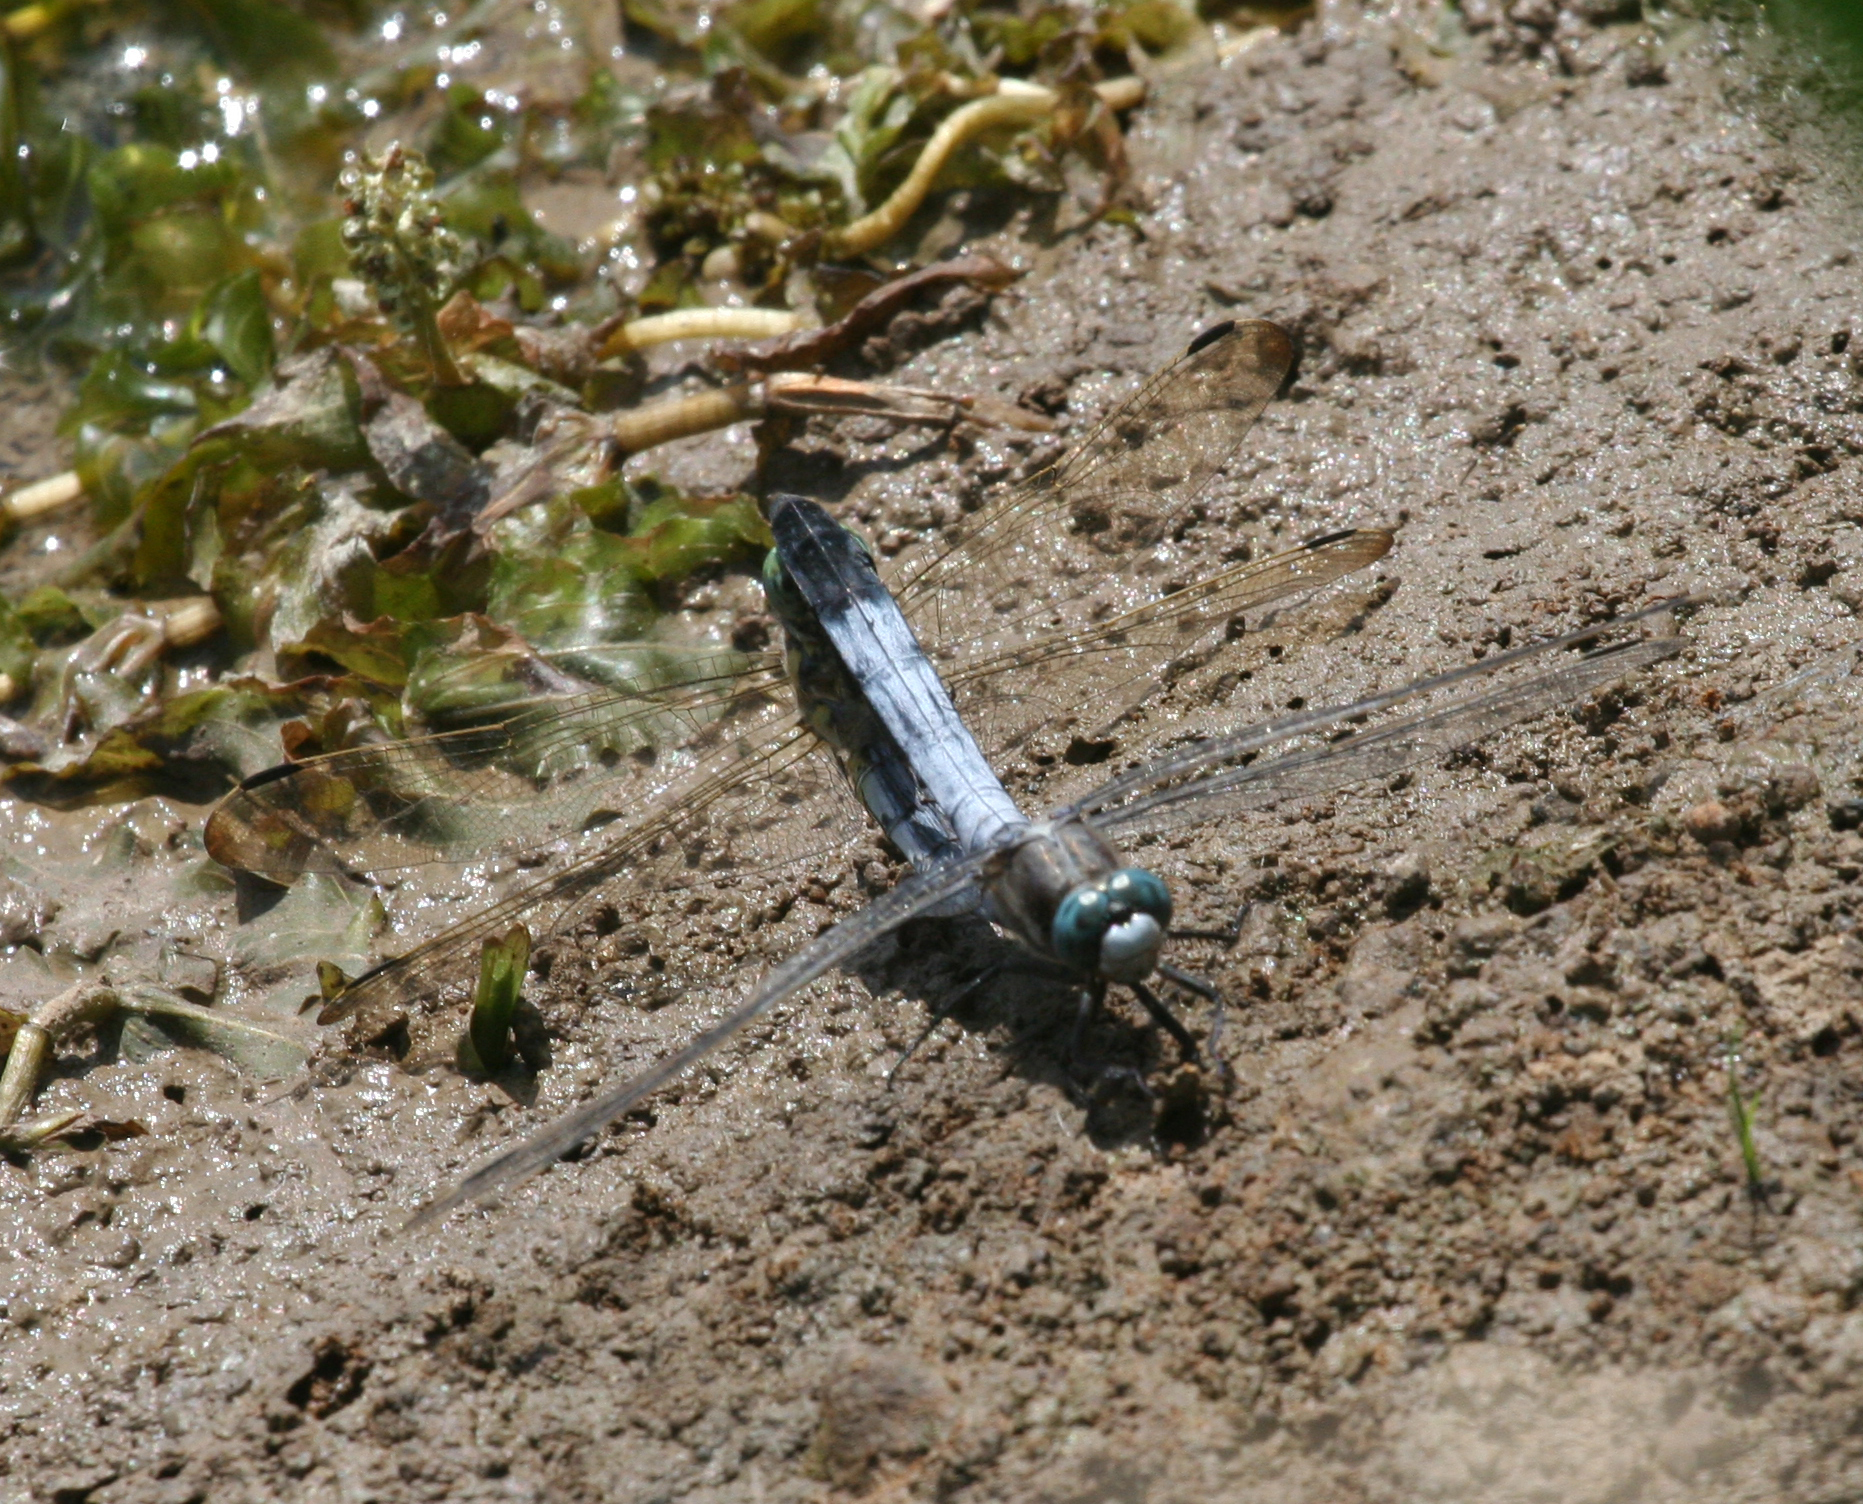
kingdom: Animalia
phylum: Arthropoda
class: Insecta
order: Odonata
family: Libellulidae
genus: Orthetrum
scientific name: Orthetrum albistylum
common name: White-tailed skimmer
